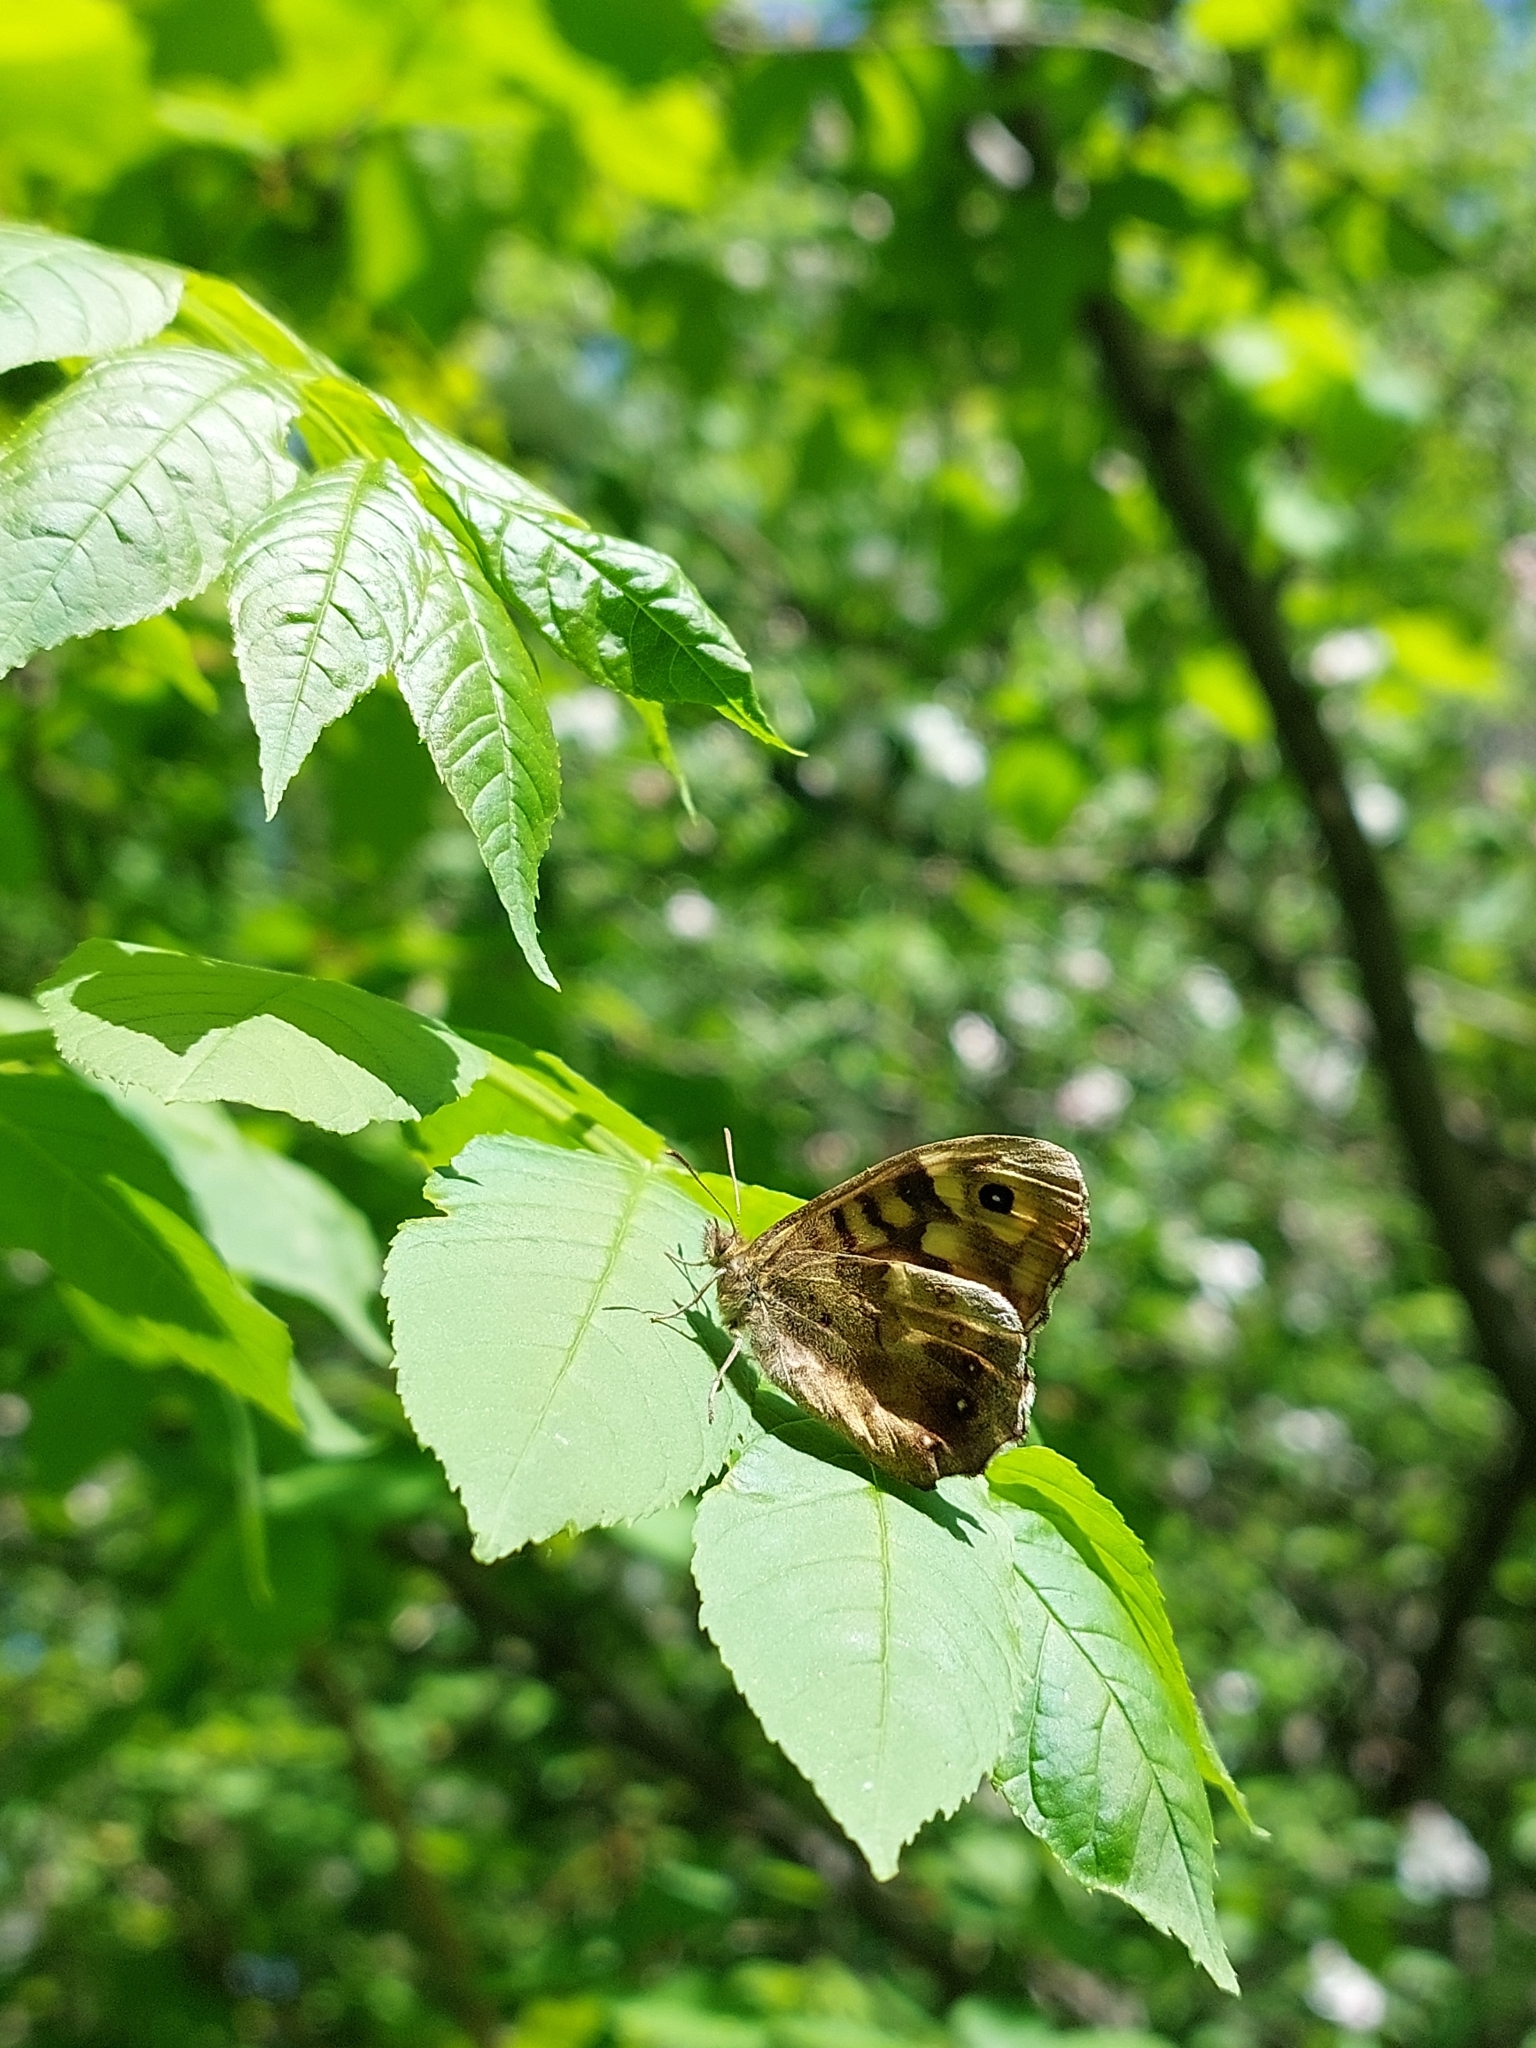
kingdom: Animalia
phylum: Arthropoda
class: Insecta
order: Lepidoptera
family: Nymphalidae
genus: Pararge
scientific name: Pararge aegeria
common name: Speckled wood
